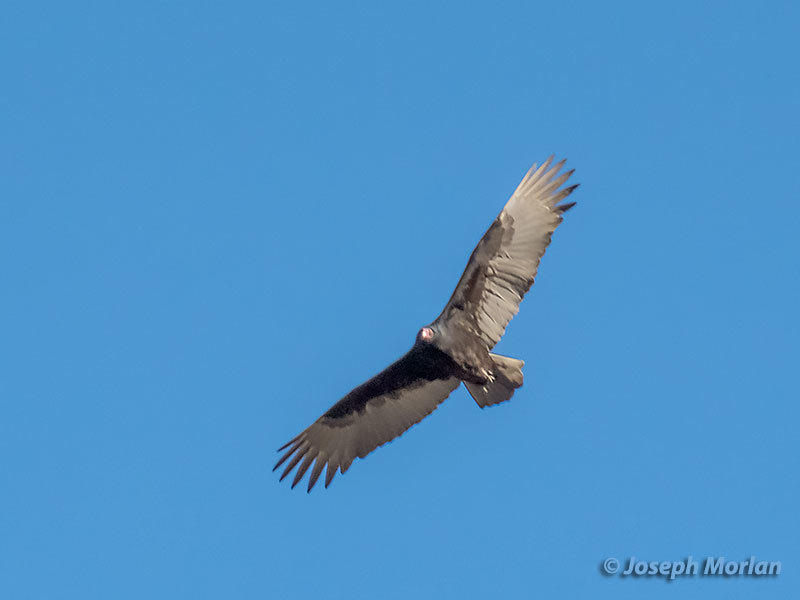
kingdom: Animalia
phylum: Chordata
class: Aves
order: Accipitriformes
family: Cathartidae
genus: Cathartes
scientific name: Cathartes aura
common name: Turkey vulture
